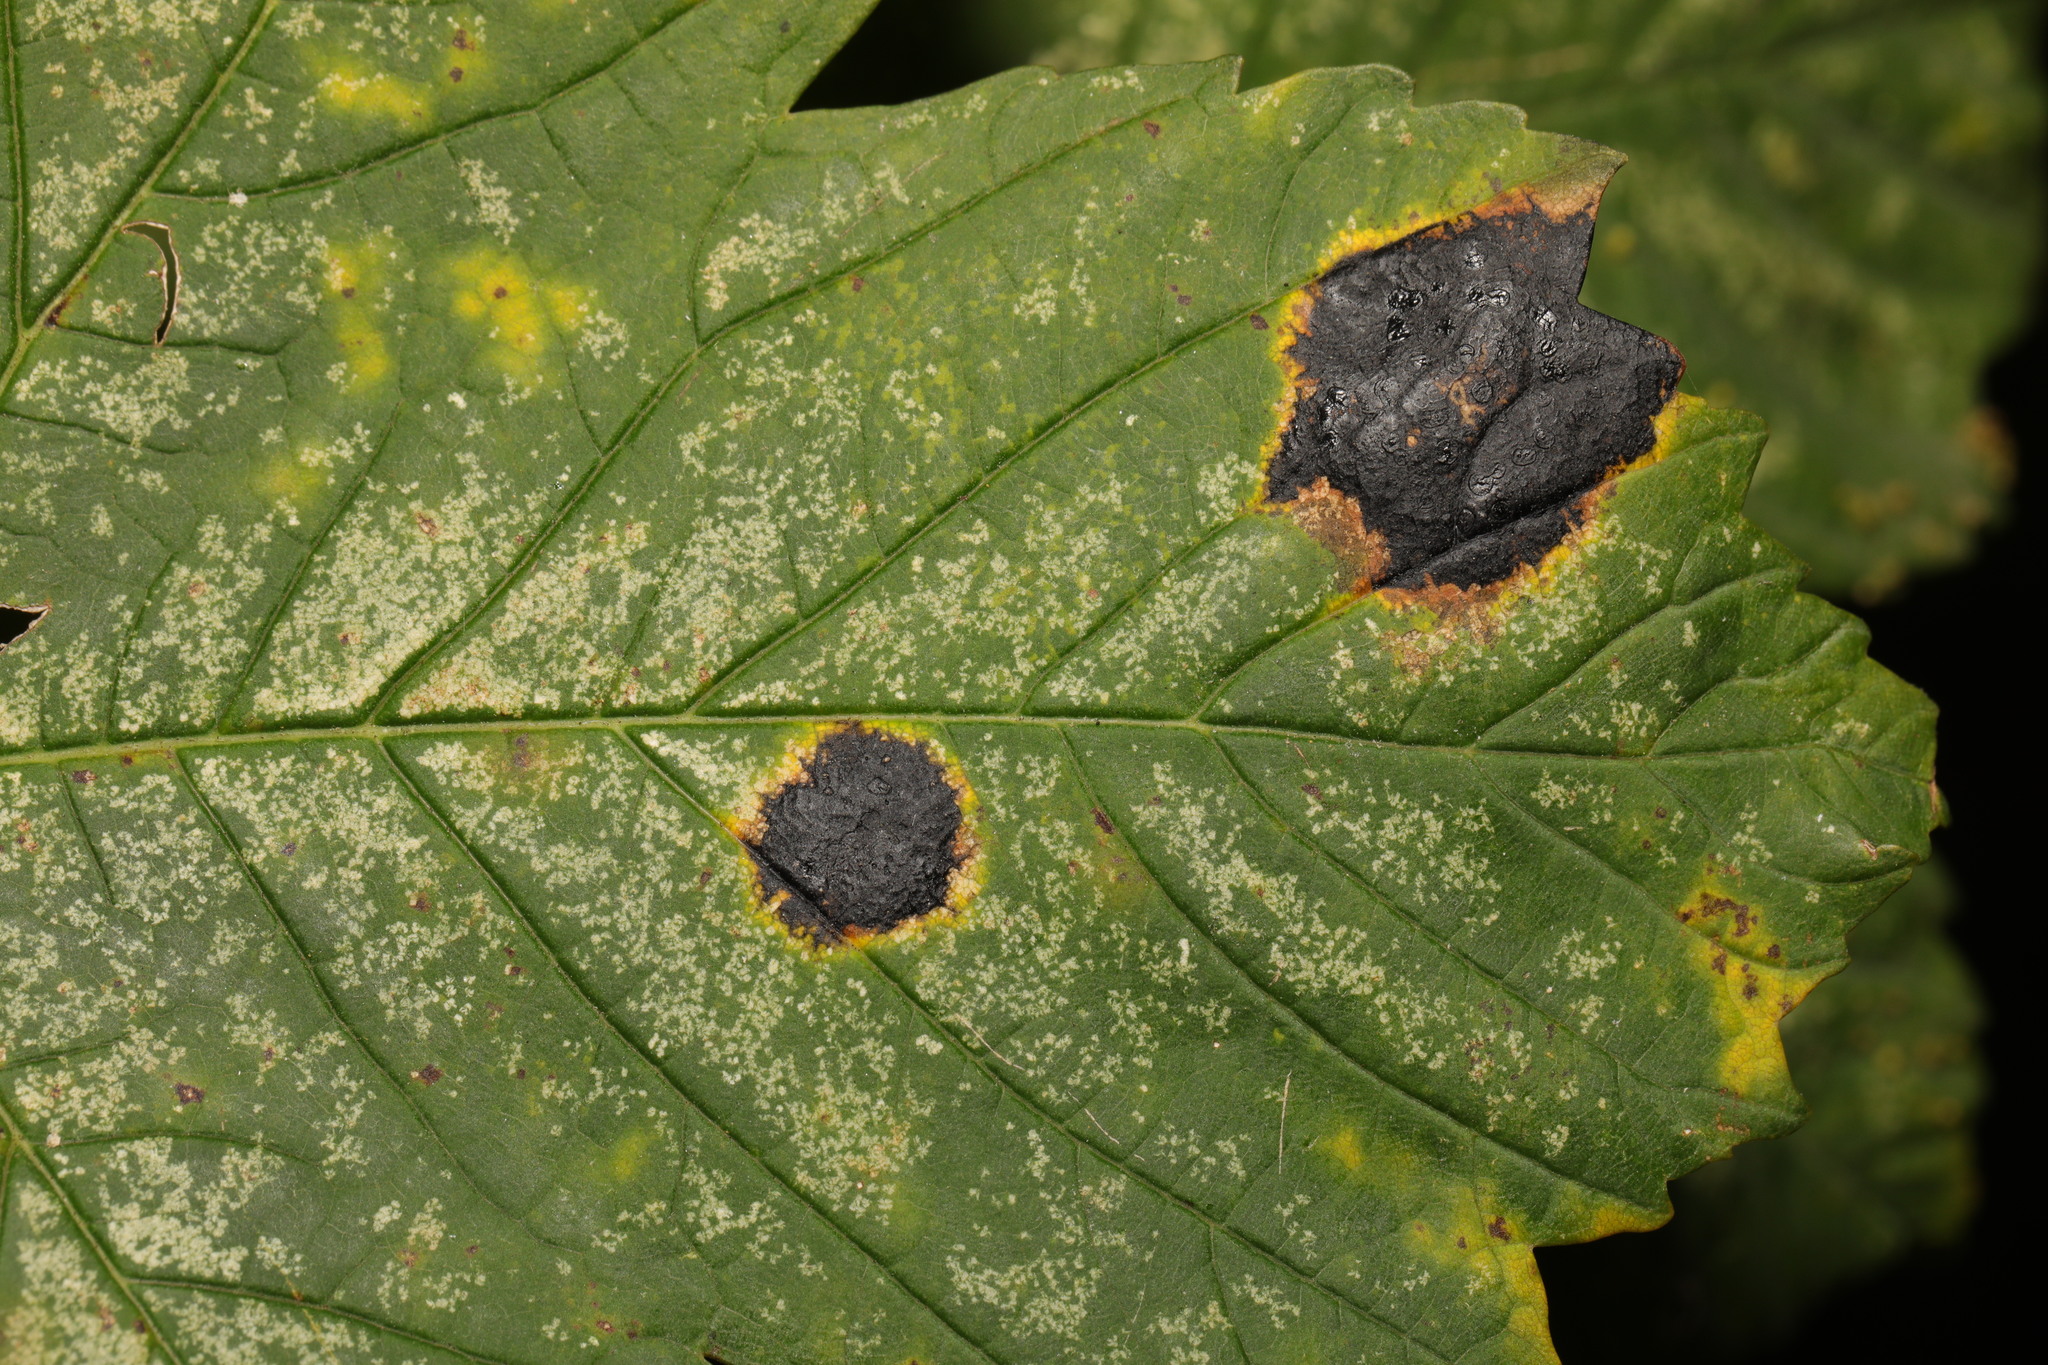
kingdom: Fungi
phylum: Ascomycota
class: Leotiomycetes
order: Rhytismatales
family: Rhytismataceae
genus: Rhytisma
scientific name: Rhytisma acerinum
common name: European tar spot
